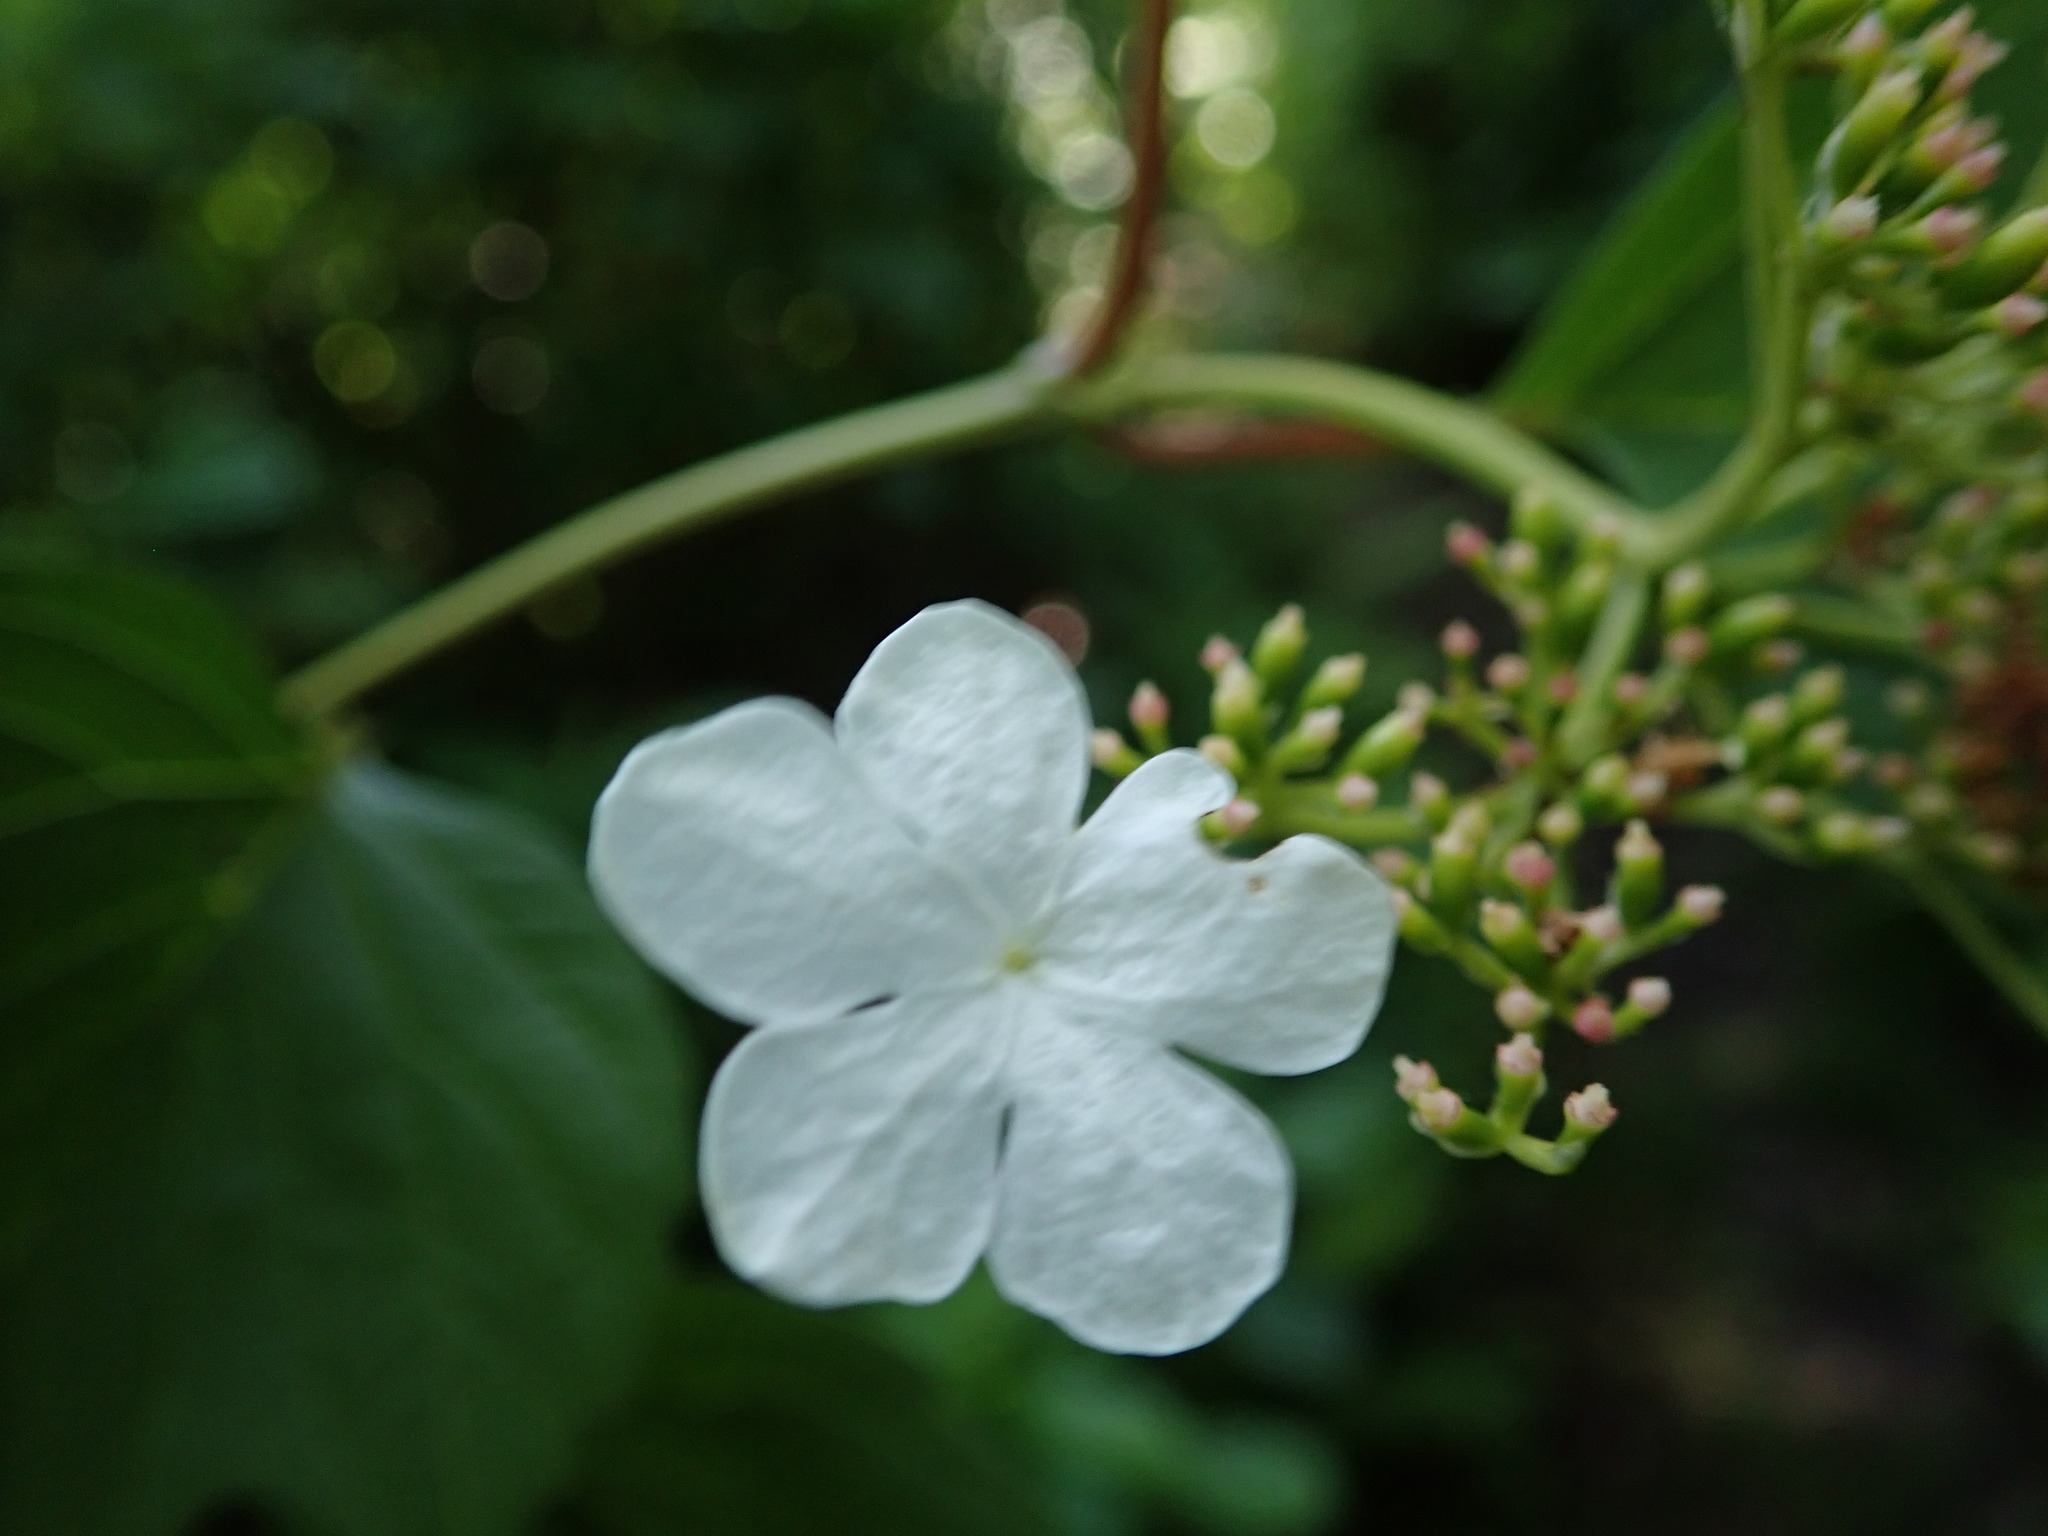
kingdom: Plantae
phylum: Tracheophyta
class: Magnoliopsida
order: Dipsacales
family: Viburnaceae
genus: Viburnum
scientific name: Viburnum opulus
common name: Guelder-rose
